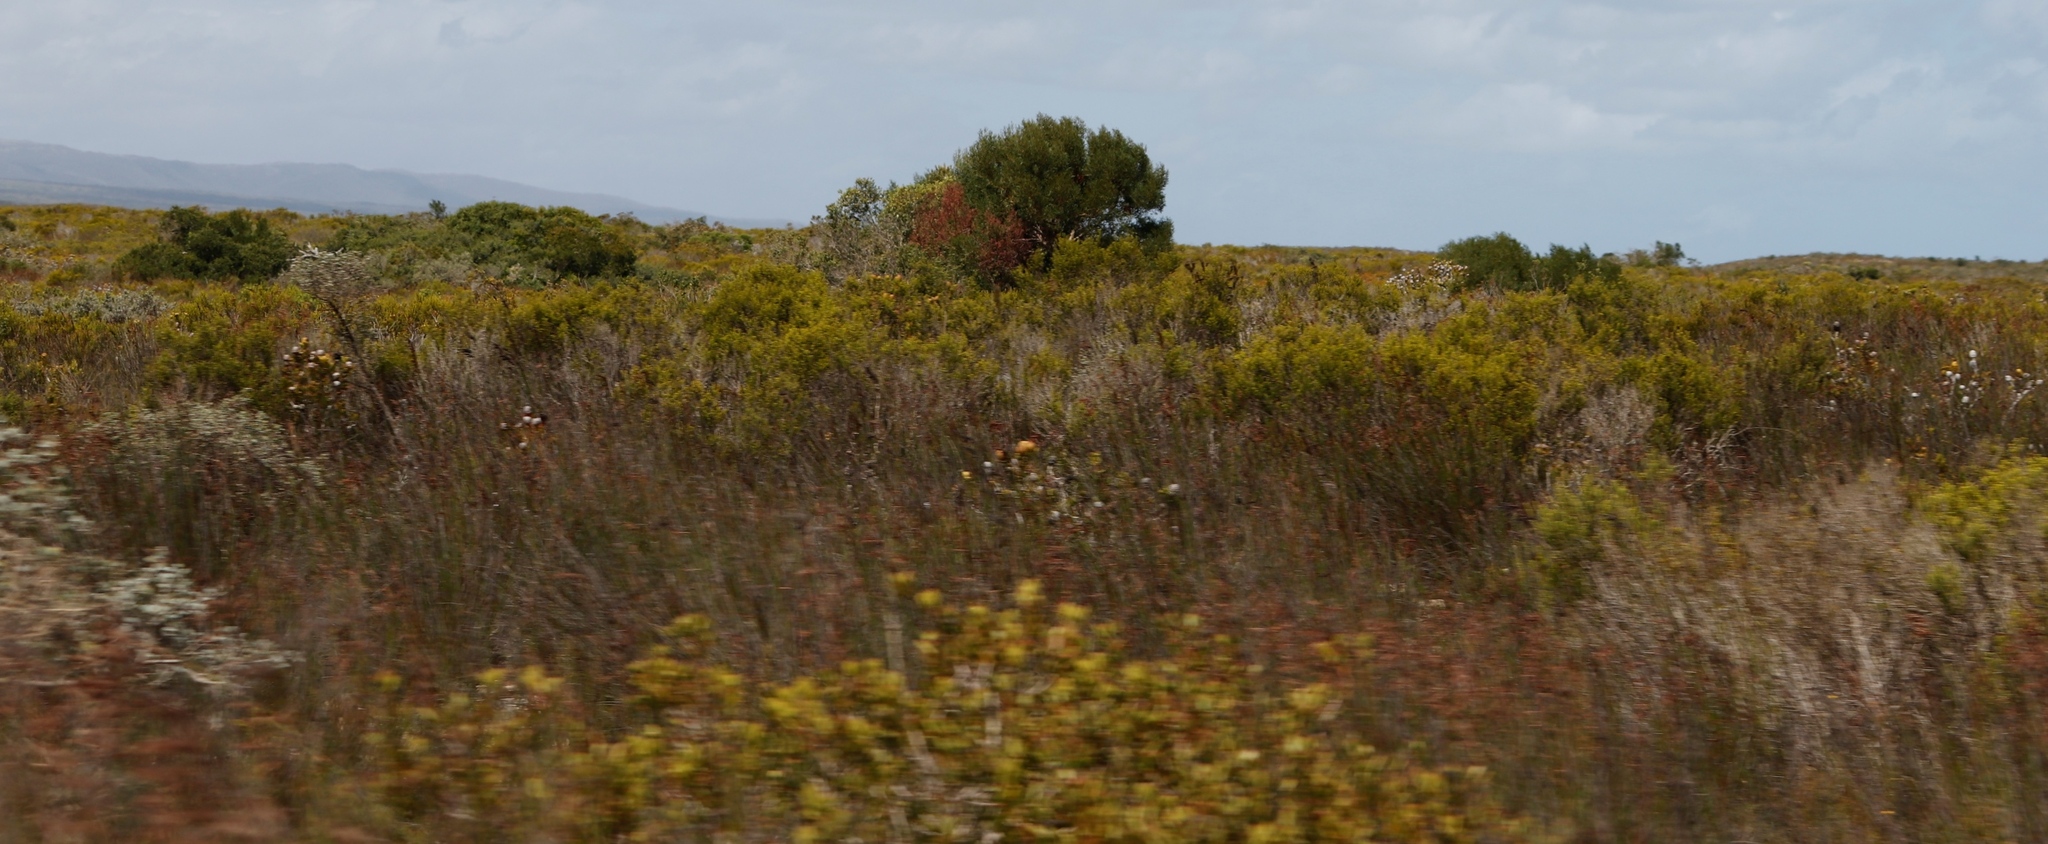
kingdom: Plantae
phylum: Tracheophyta
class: Magnoliopsida
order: Fabales
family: Fabaceae
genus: Acacia
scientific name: Acacia cyclops
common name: Coastal wattle
